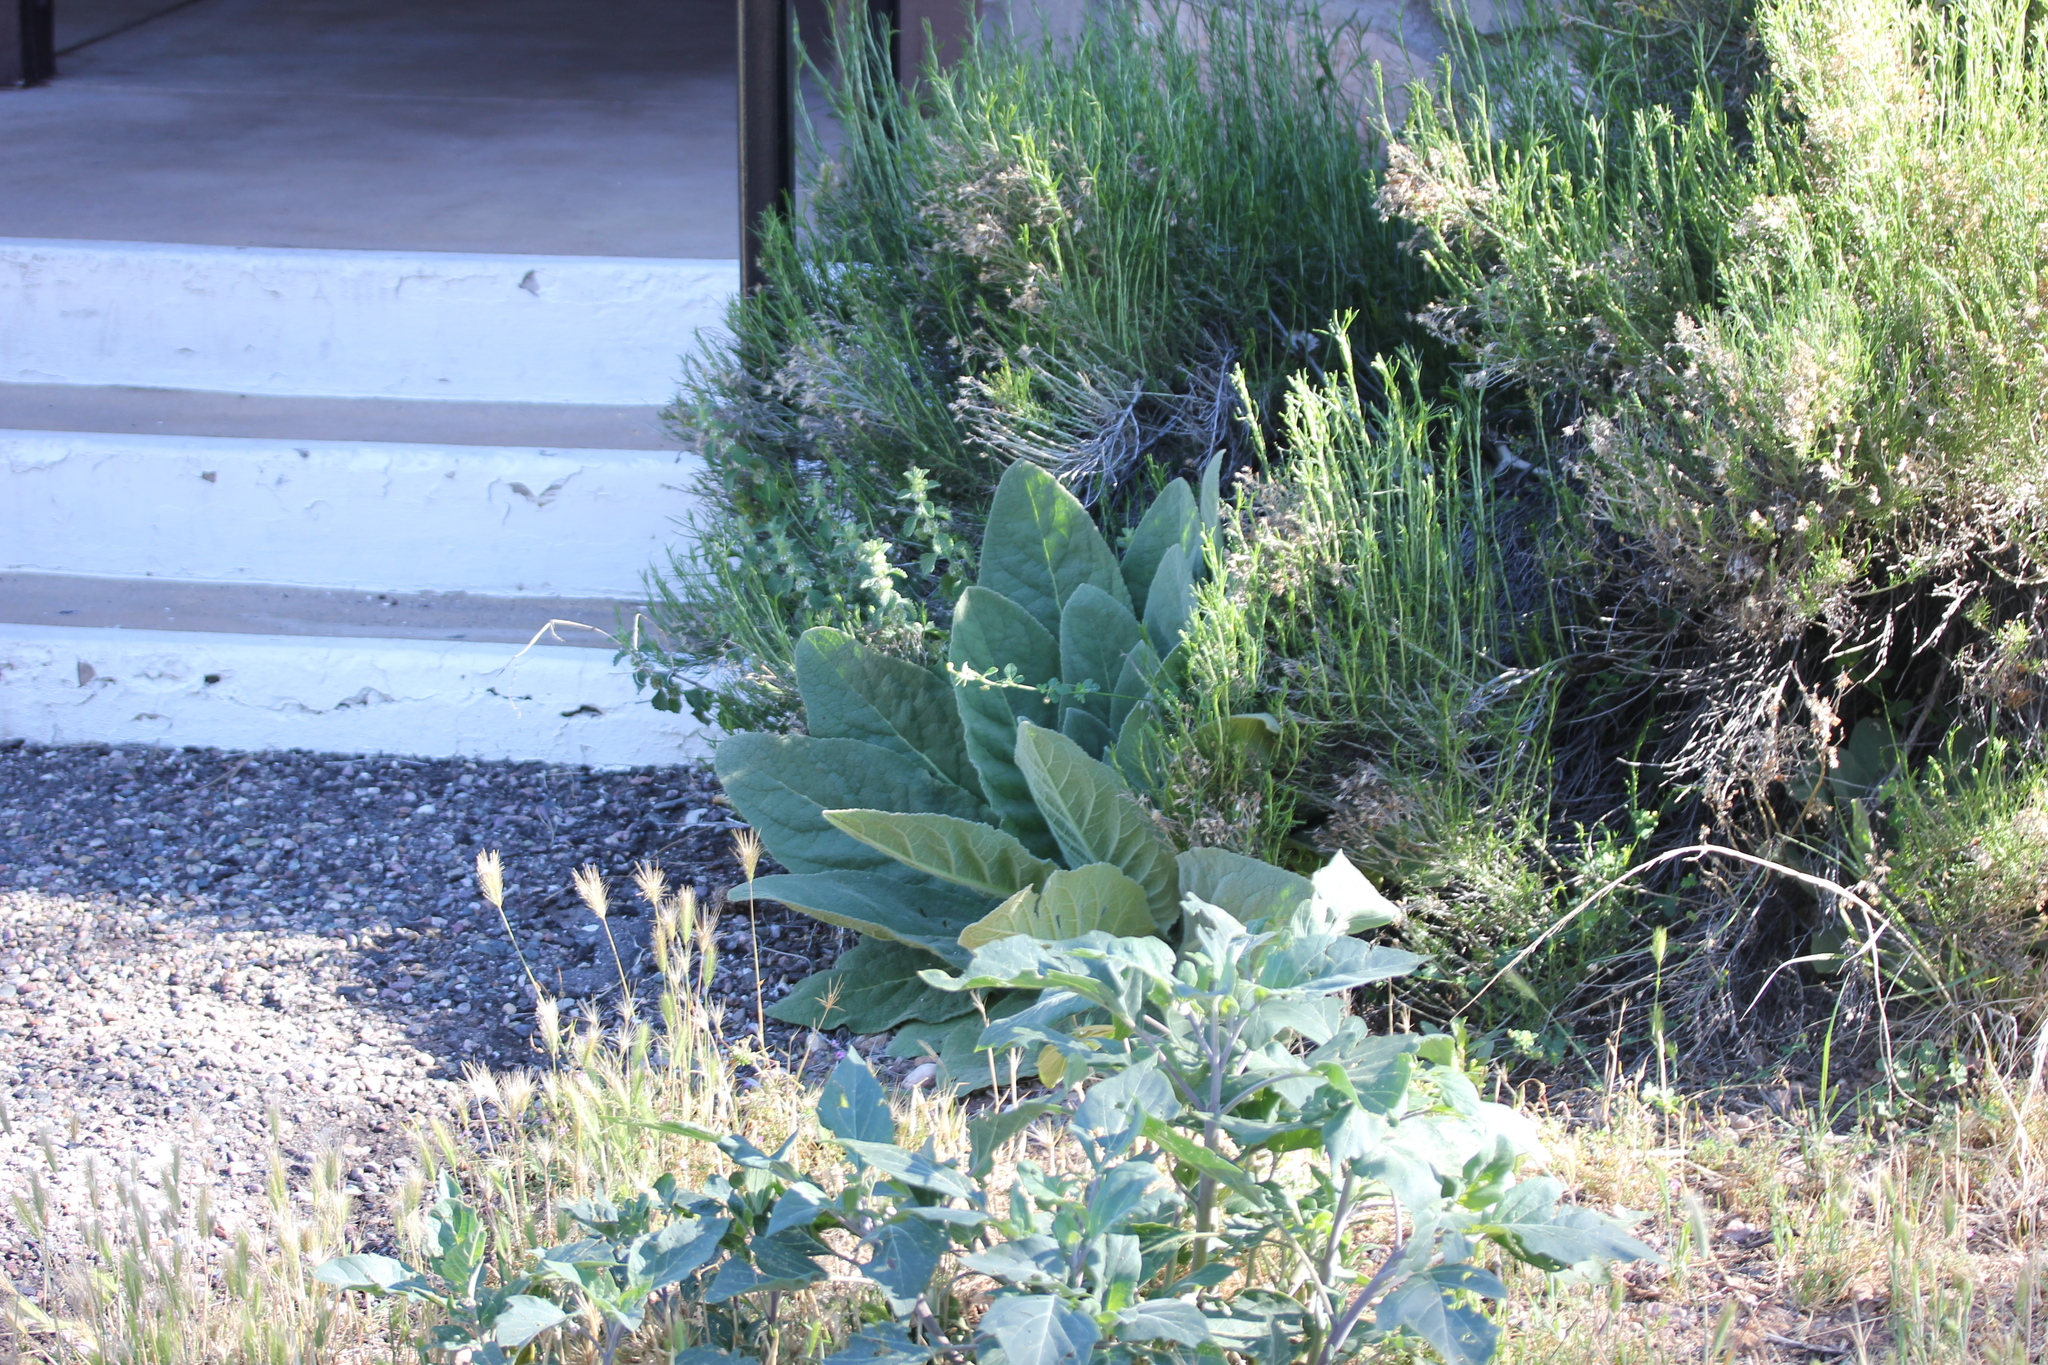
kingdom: Plantae
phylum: Tracheophyta
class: Magnoliopsida
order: Lamiales
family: Scrophulariaceae
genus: Verbascum
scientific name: Verbascum thapsus
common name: Common mullein
